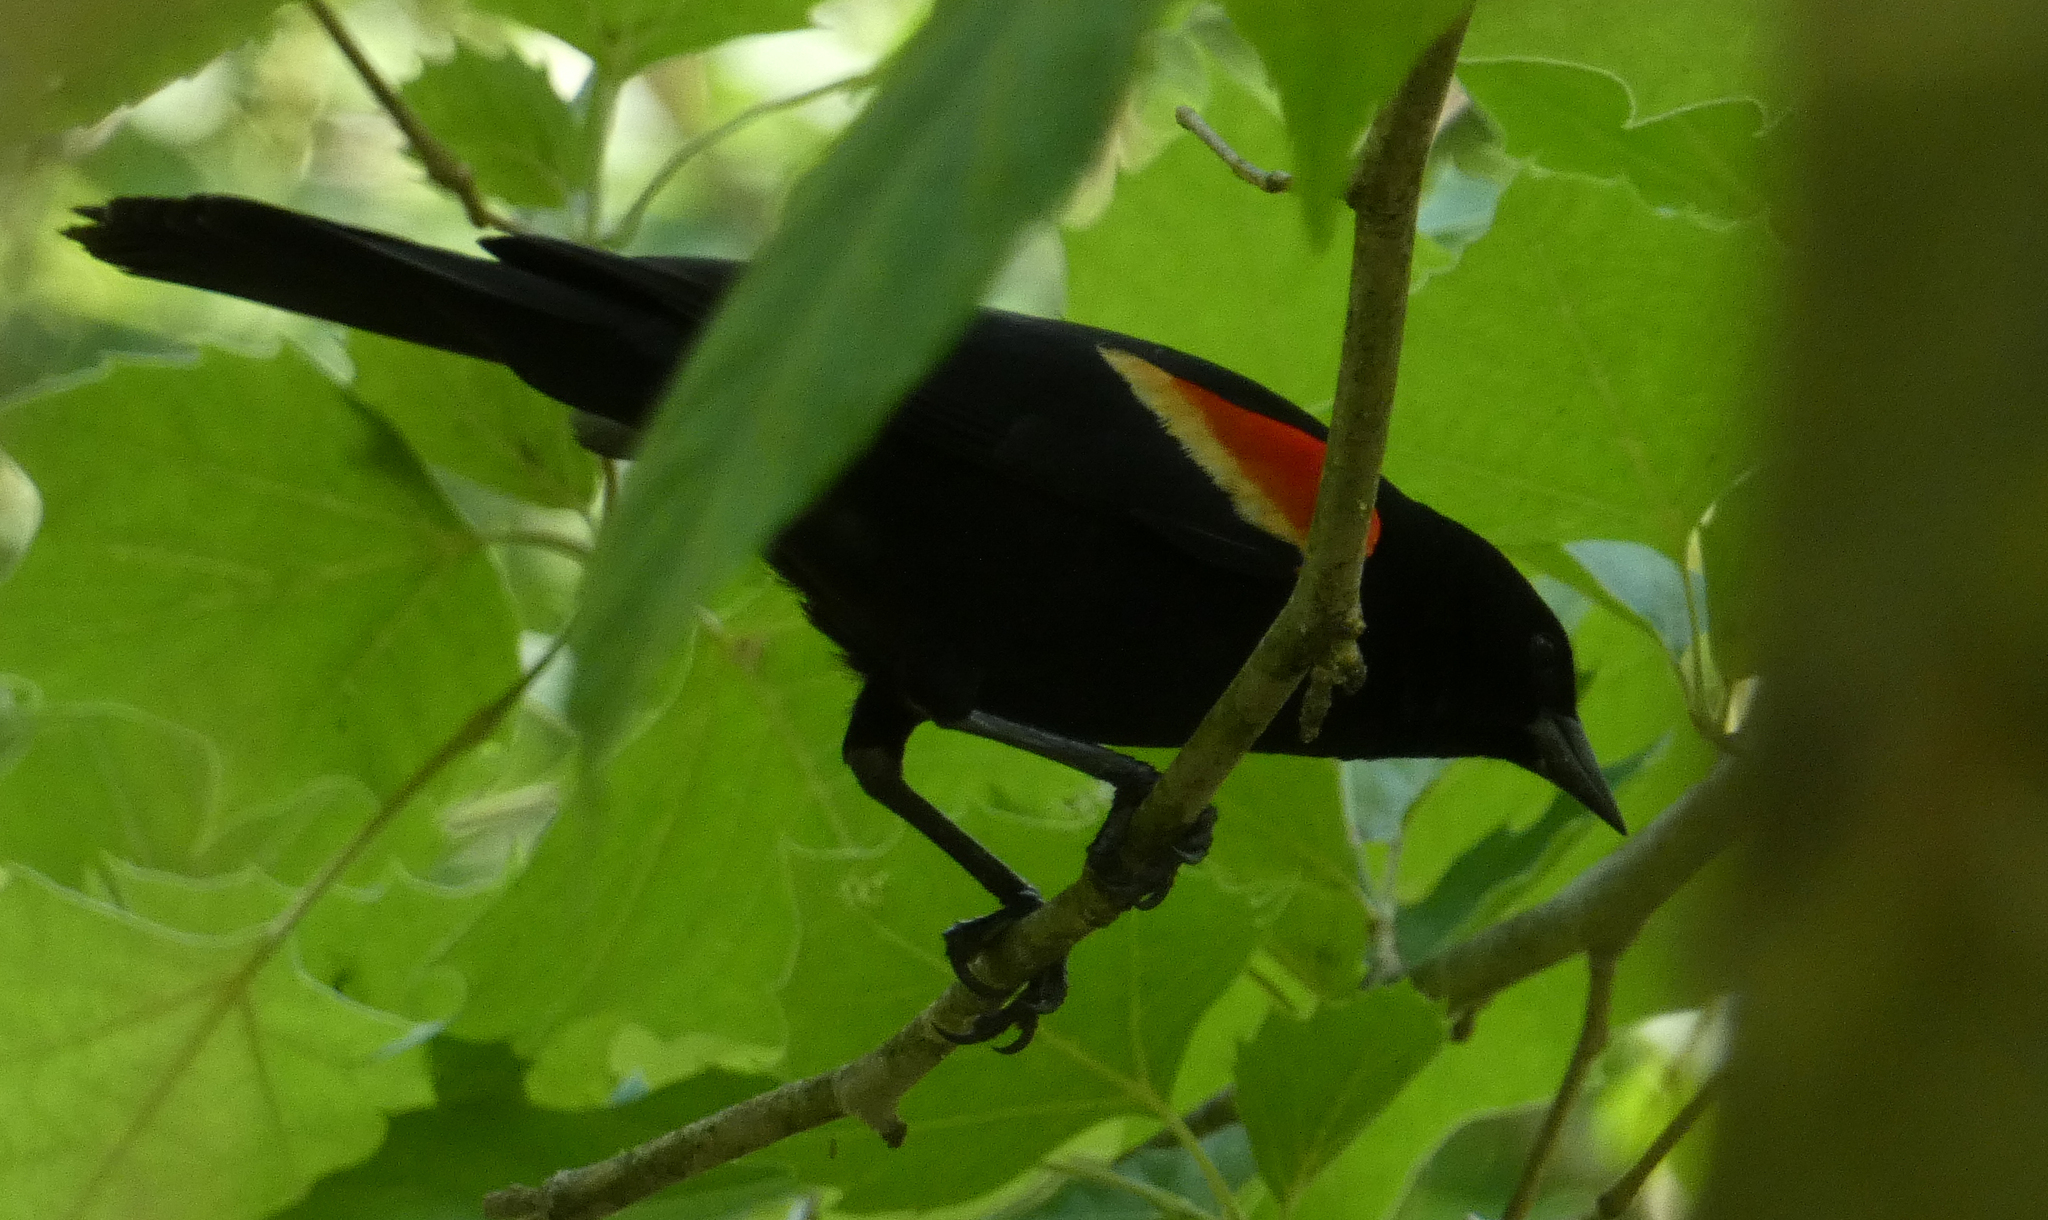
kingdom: Animalia
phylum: Chordata
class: Aves
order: Passeriformes
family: Icteridae
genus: Agelaius
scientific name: Agelaius phoeniceus
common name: Red-winged blackbird
